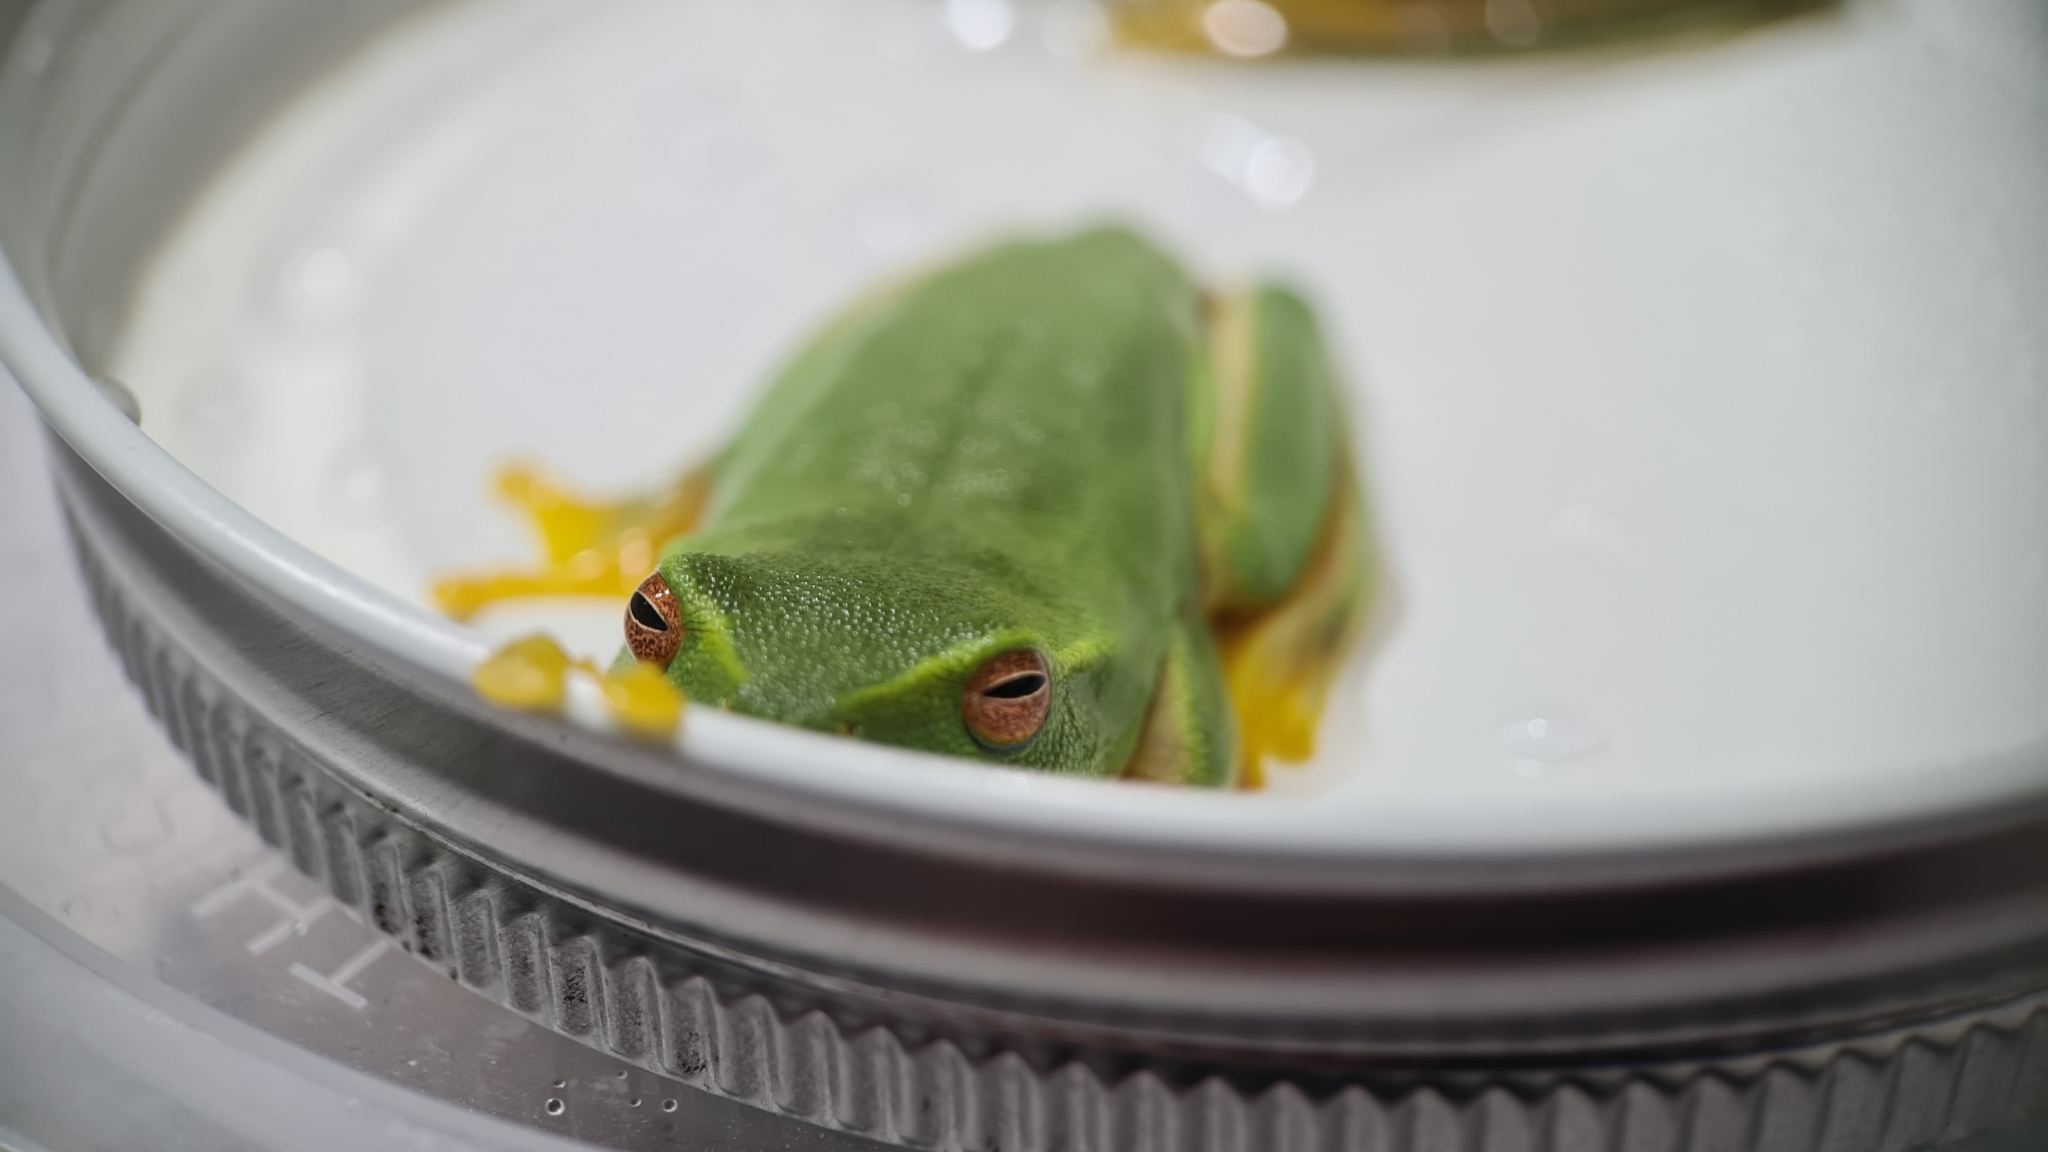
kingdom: Animalia
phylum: Chordata
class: Amphibia
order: Anura
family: Pelodryadidae
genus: Ranoidea
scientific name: Ranoidea gracilenta
